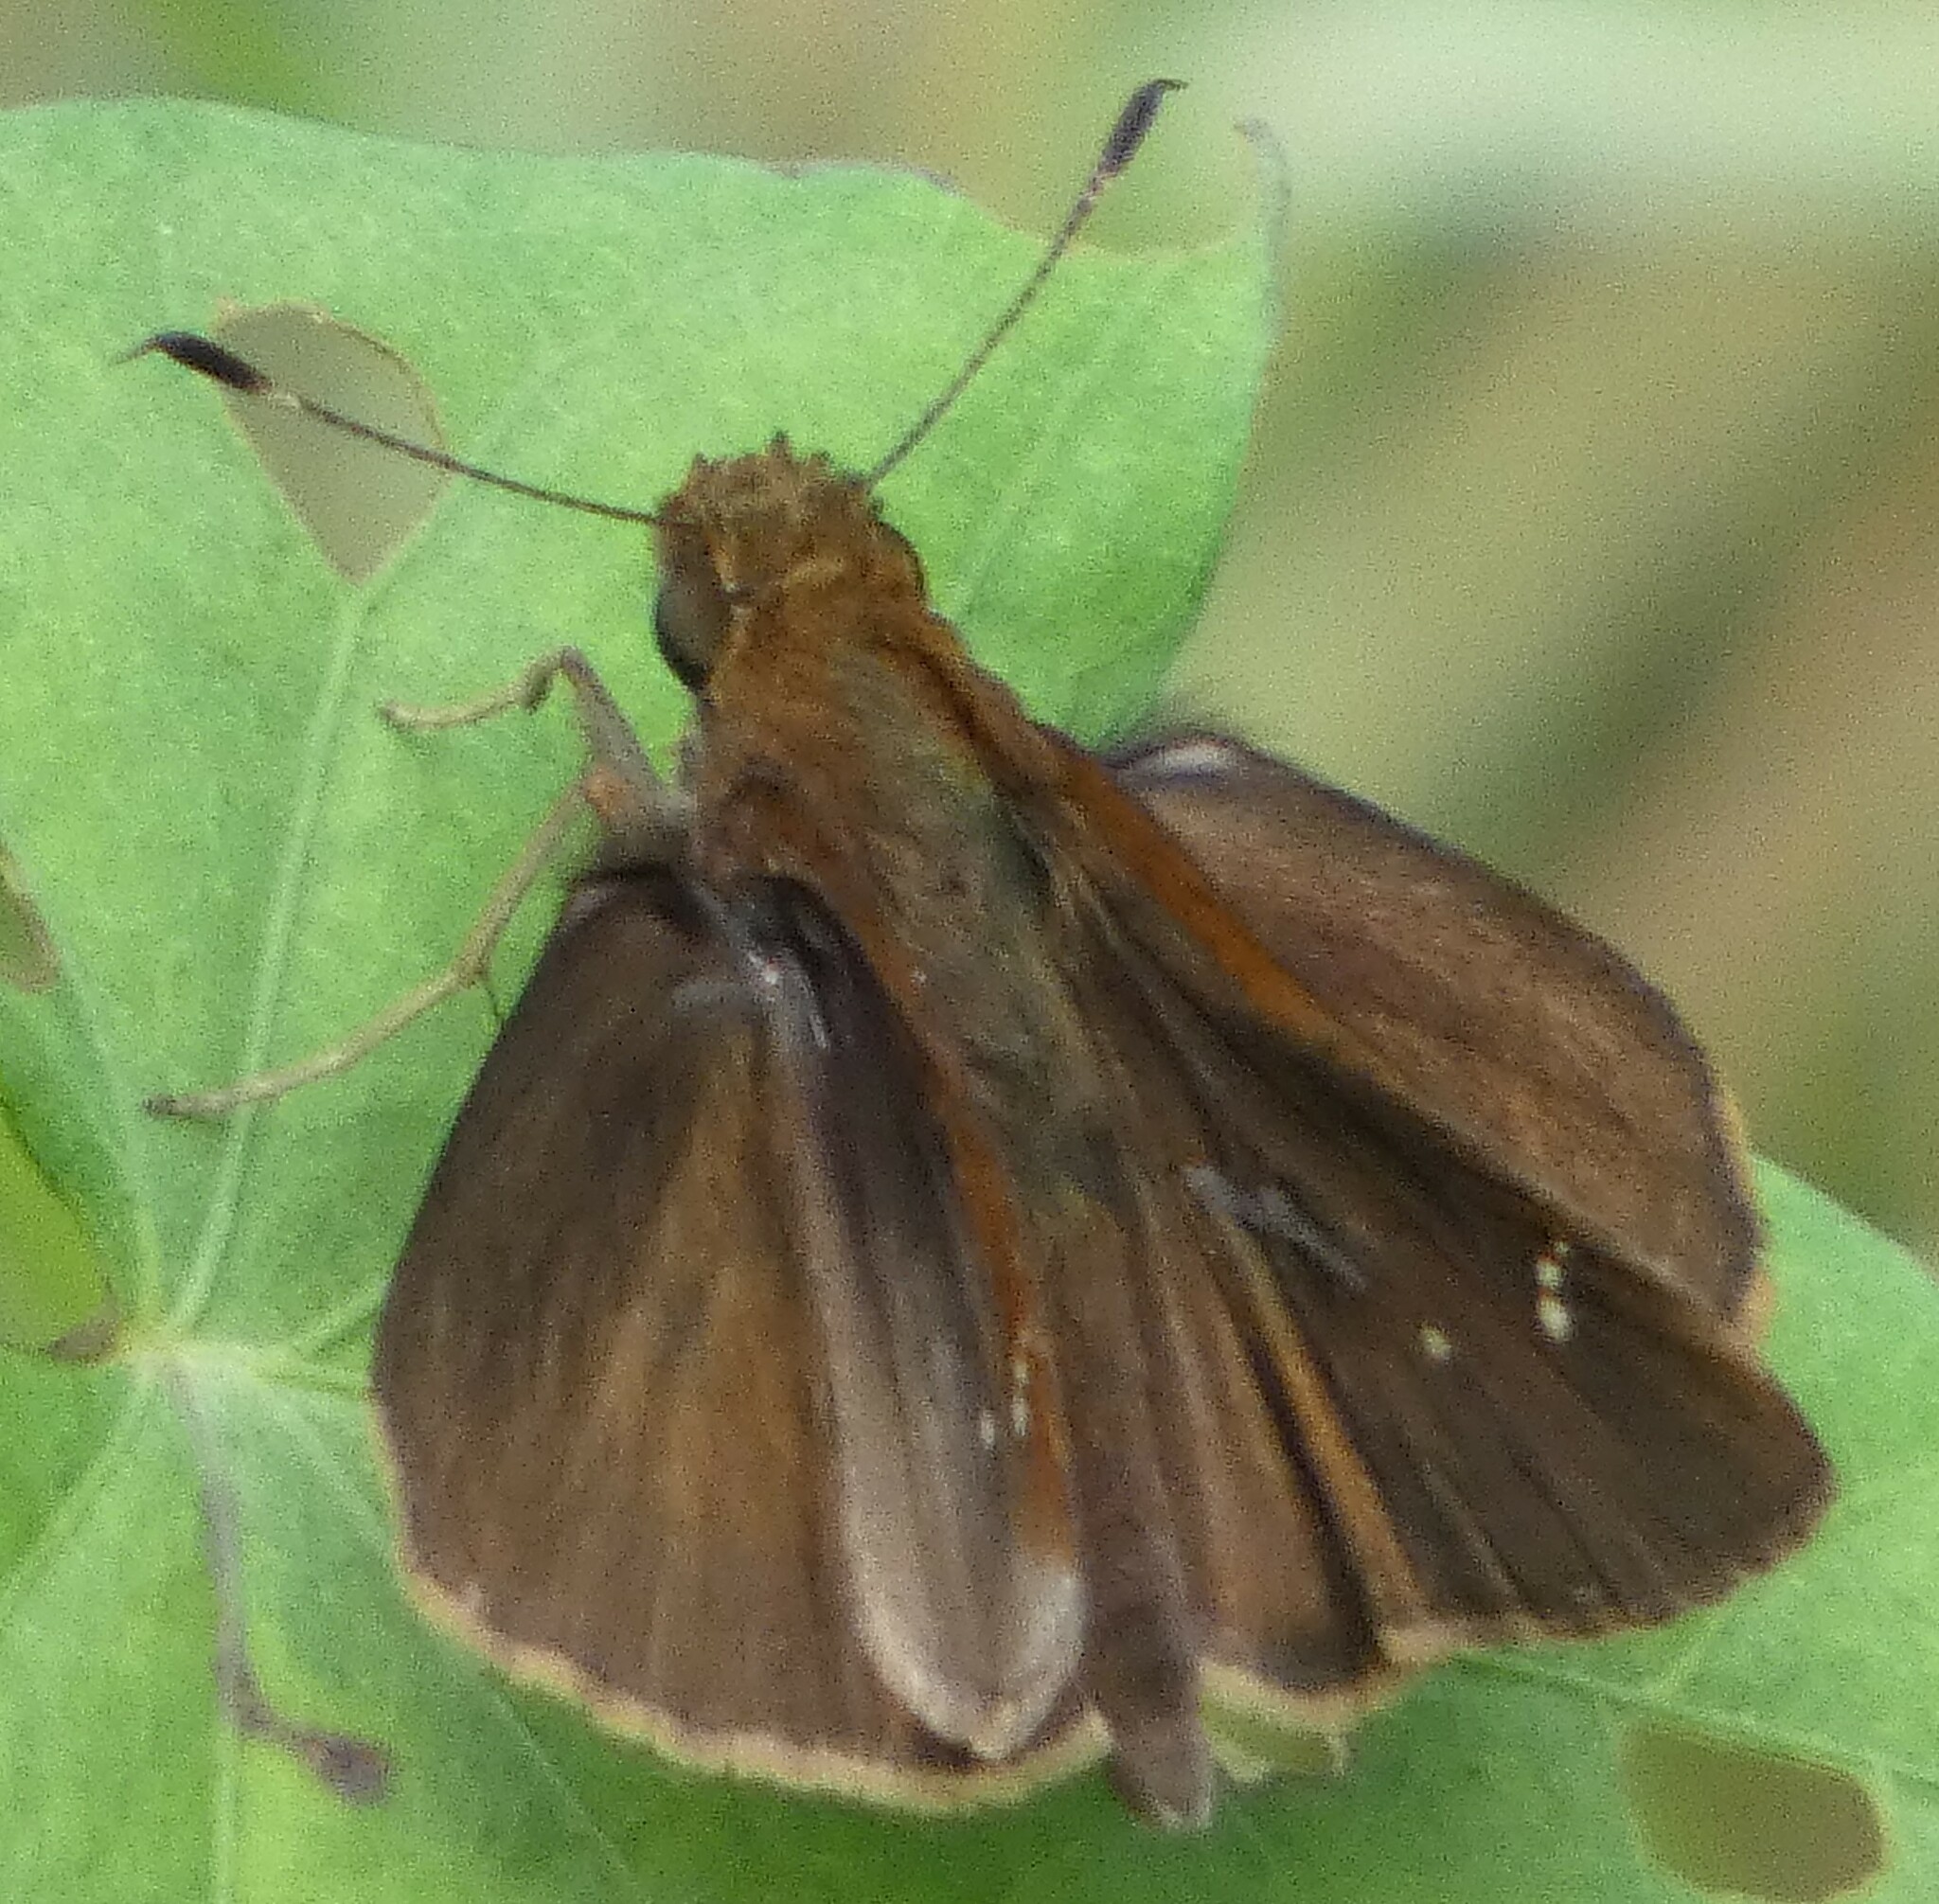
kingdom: Animalia
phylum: Arthropoda
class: Insecta
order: Lepidoptera
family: Hesperiidae
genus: Lerema
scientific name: Lerema accius
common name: Clouded skipper
